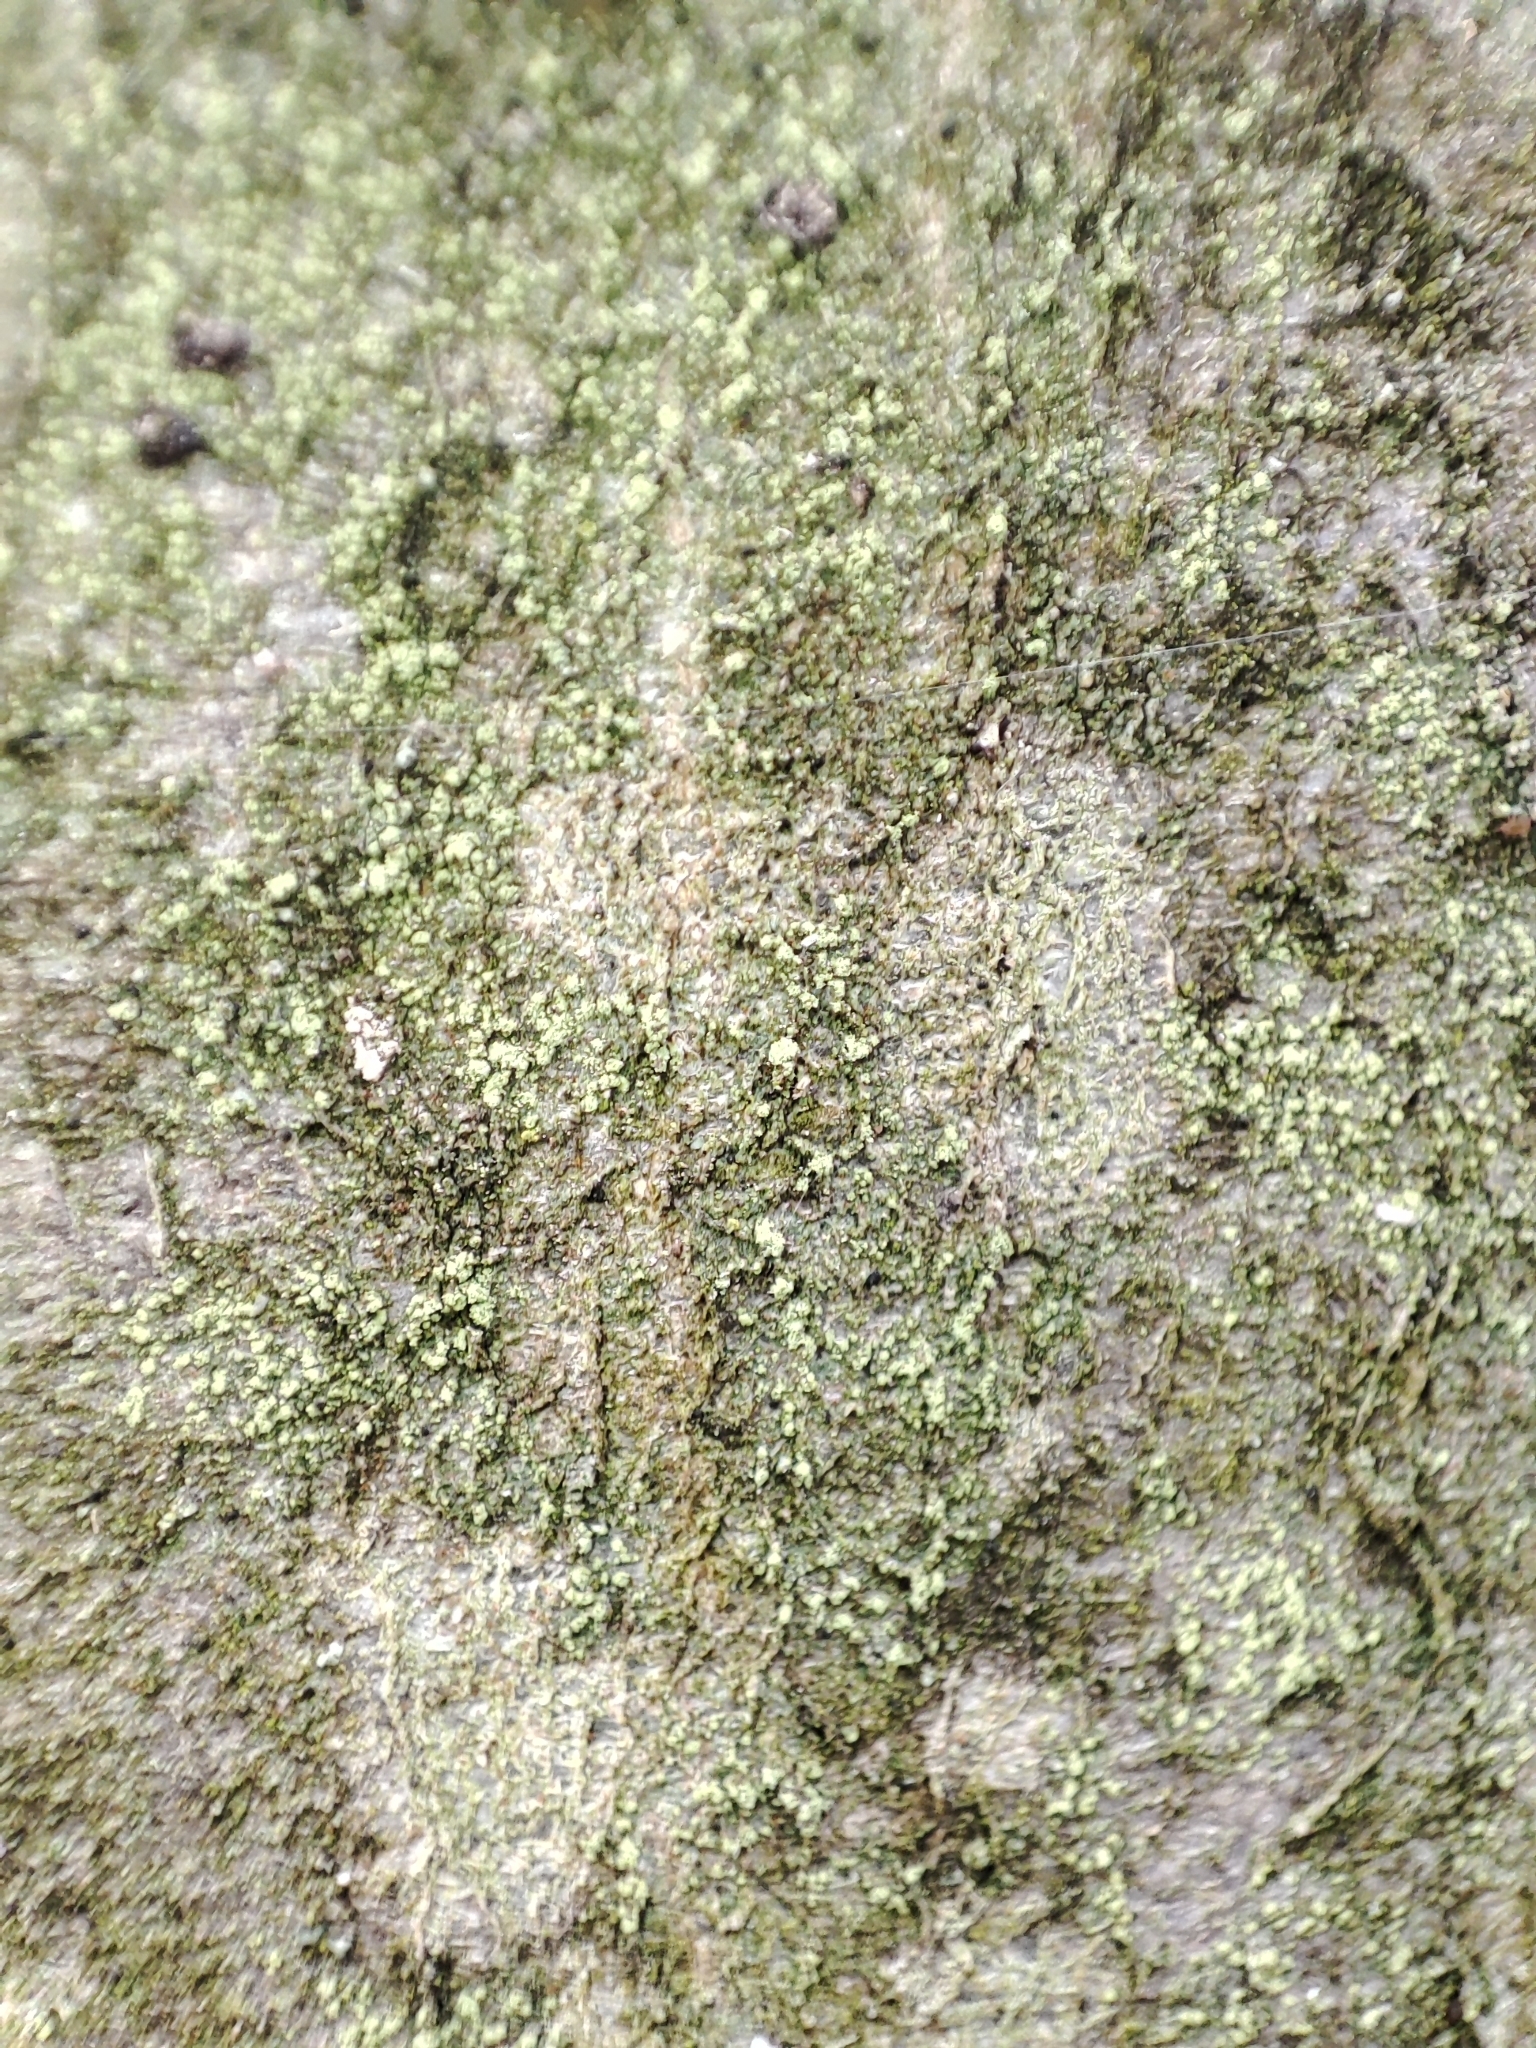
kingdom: Fungi
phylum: Ascomycota
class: Lecanoromycetes
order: Lecanorales
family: Ramalinaceae
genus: Lecania
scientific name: Lecania croatica
